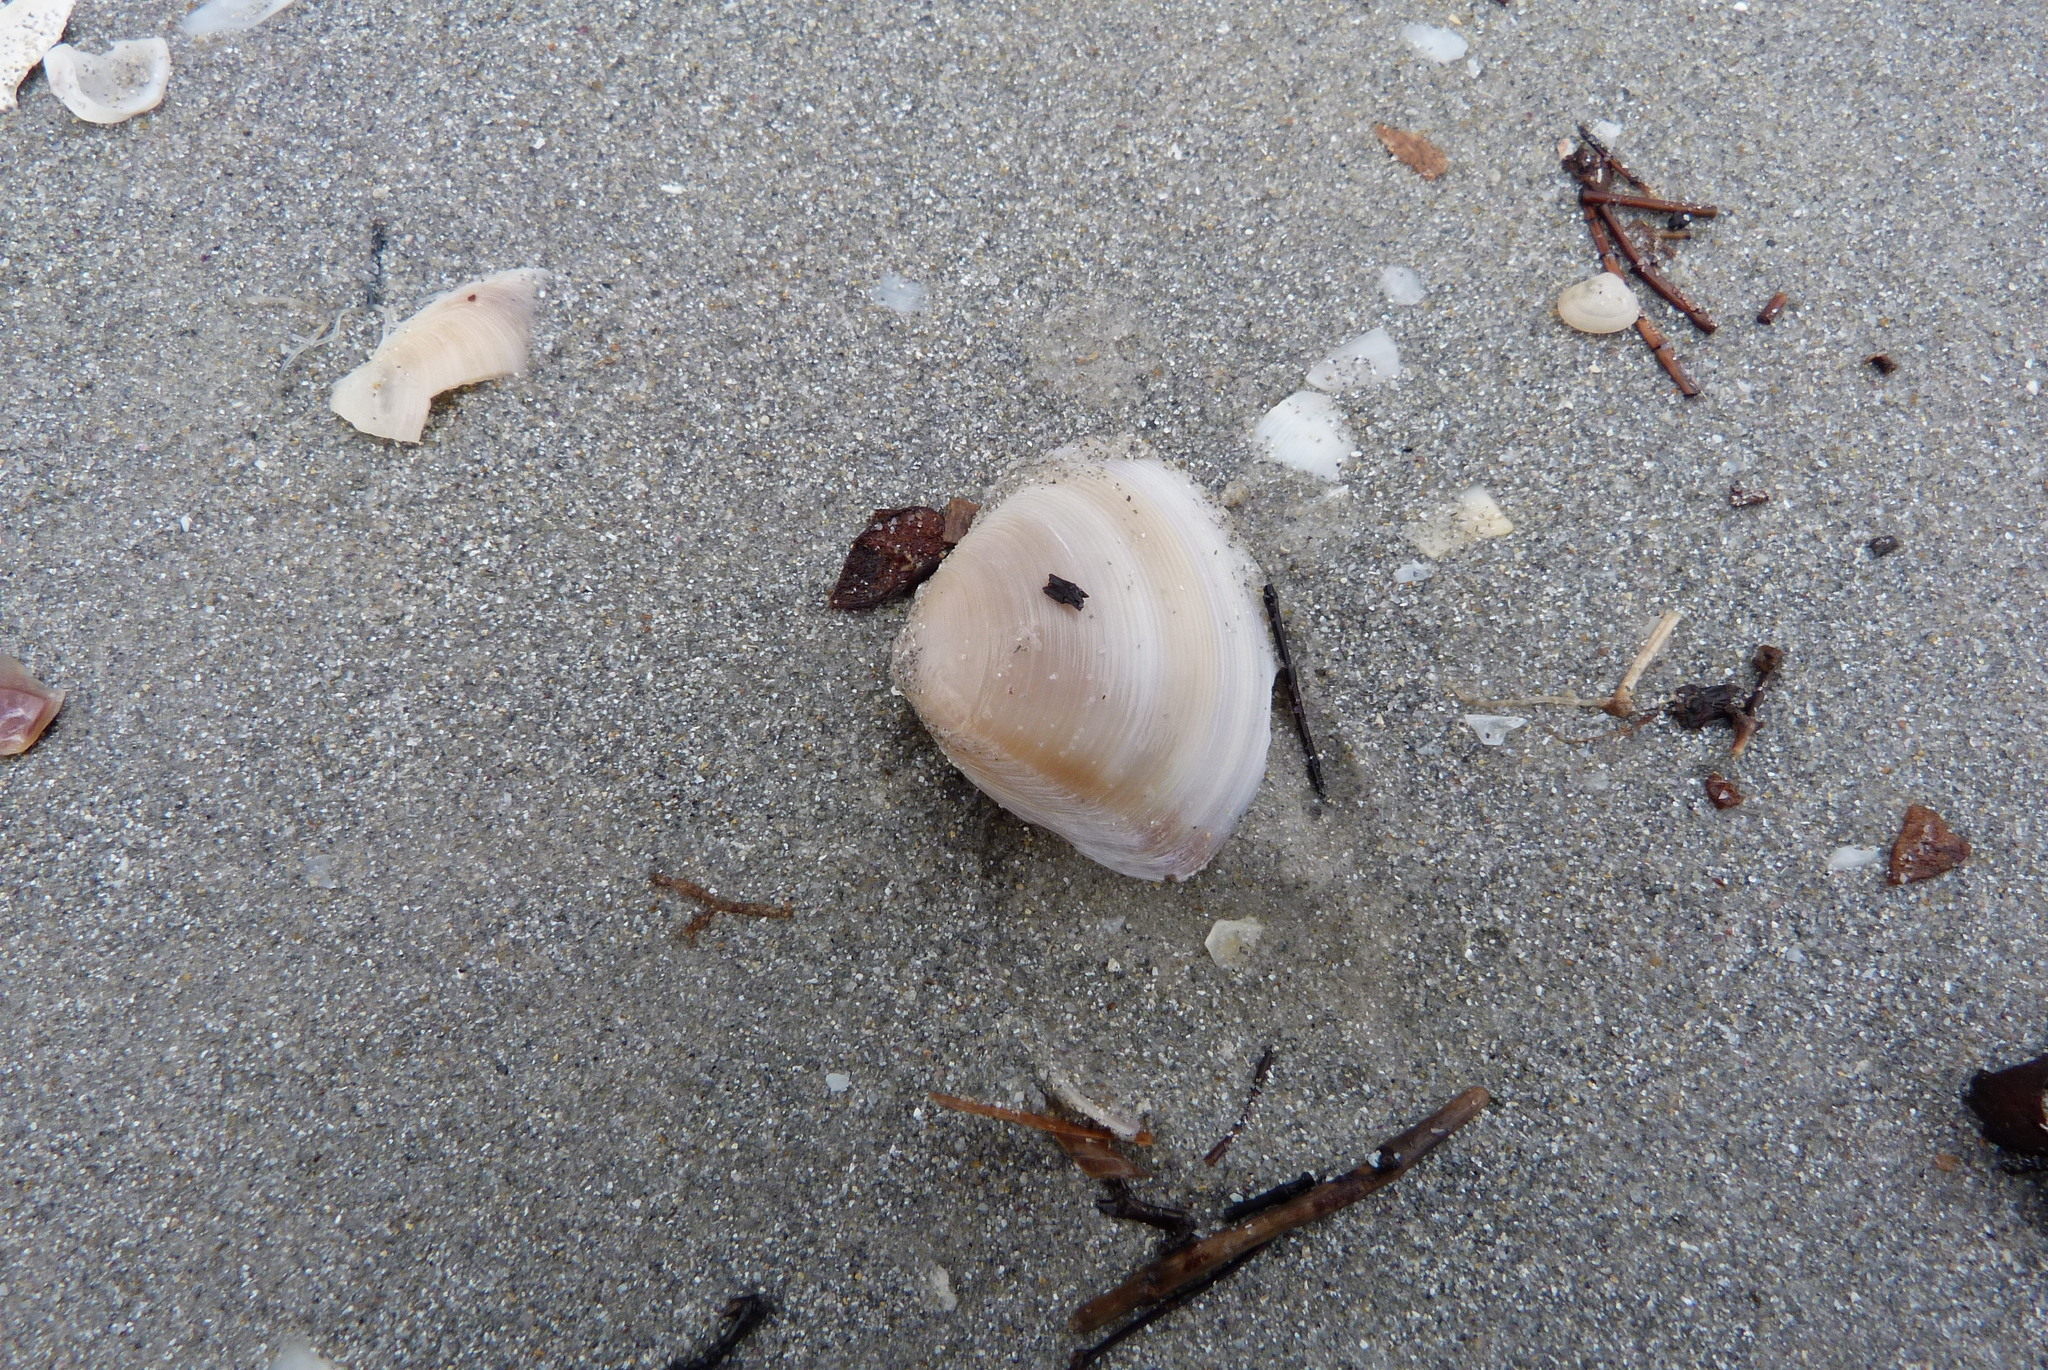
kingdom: Animalia
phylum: Mollusca
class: Bivalvia
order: Venerida
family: Mactridae
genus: Mactra
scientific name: Mactra australis
